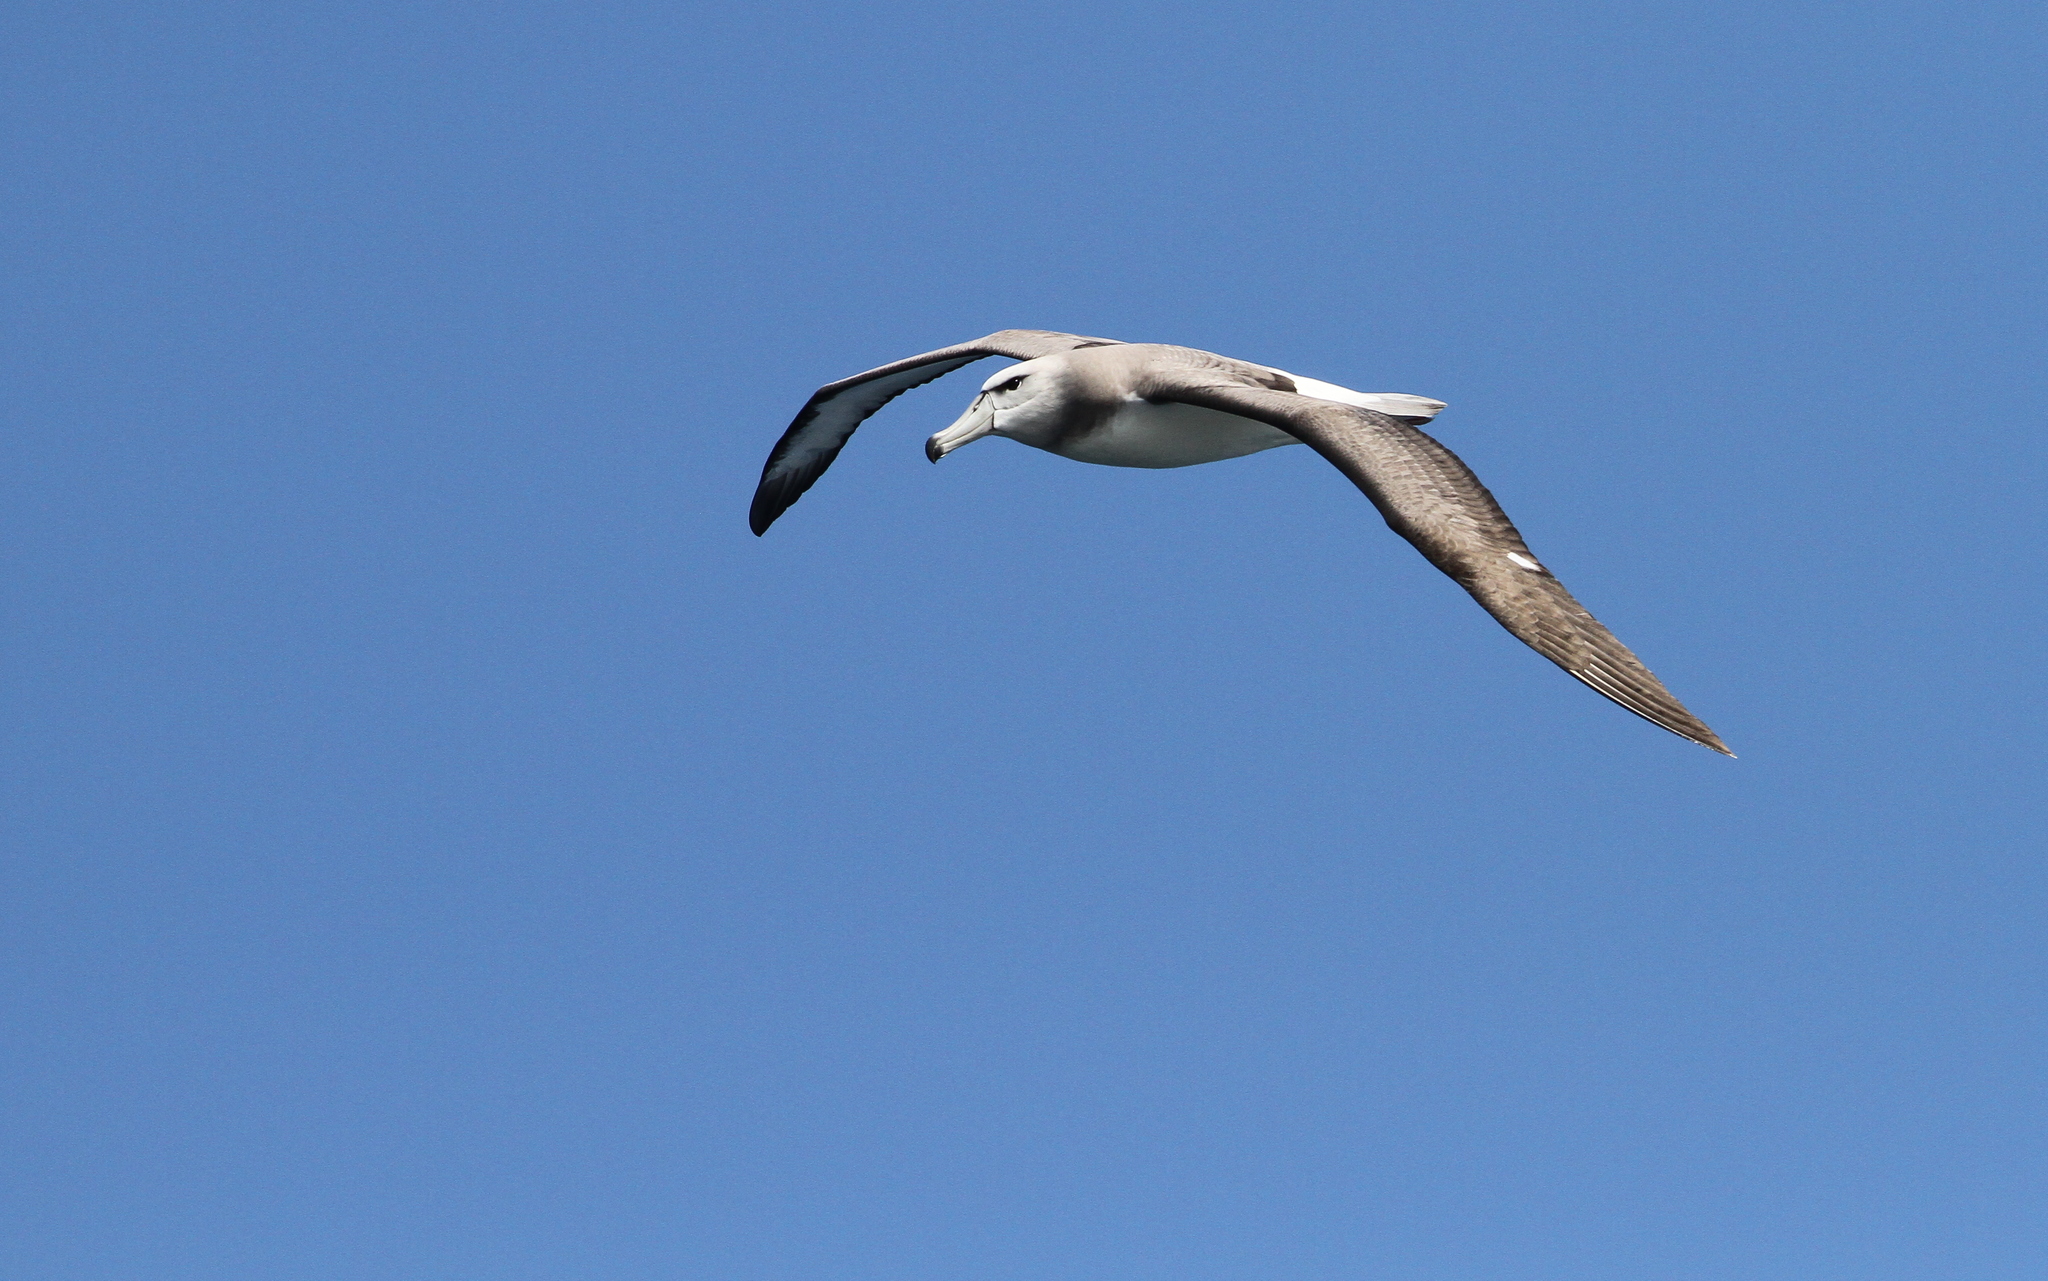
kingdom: Animalia
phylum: Chordata
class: Aves
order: Procellariiformes
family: Diomedeidae
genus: Thalassarche
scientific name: Thalassarche cauta
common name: Shy albatross
